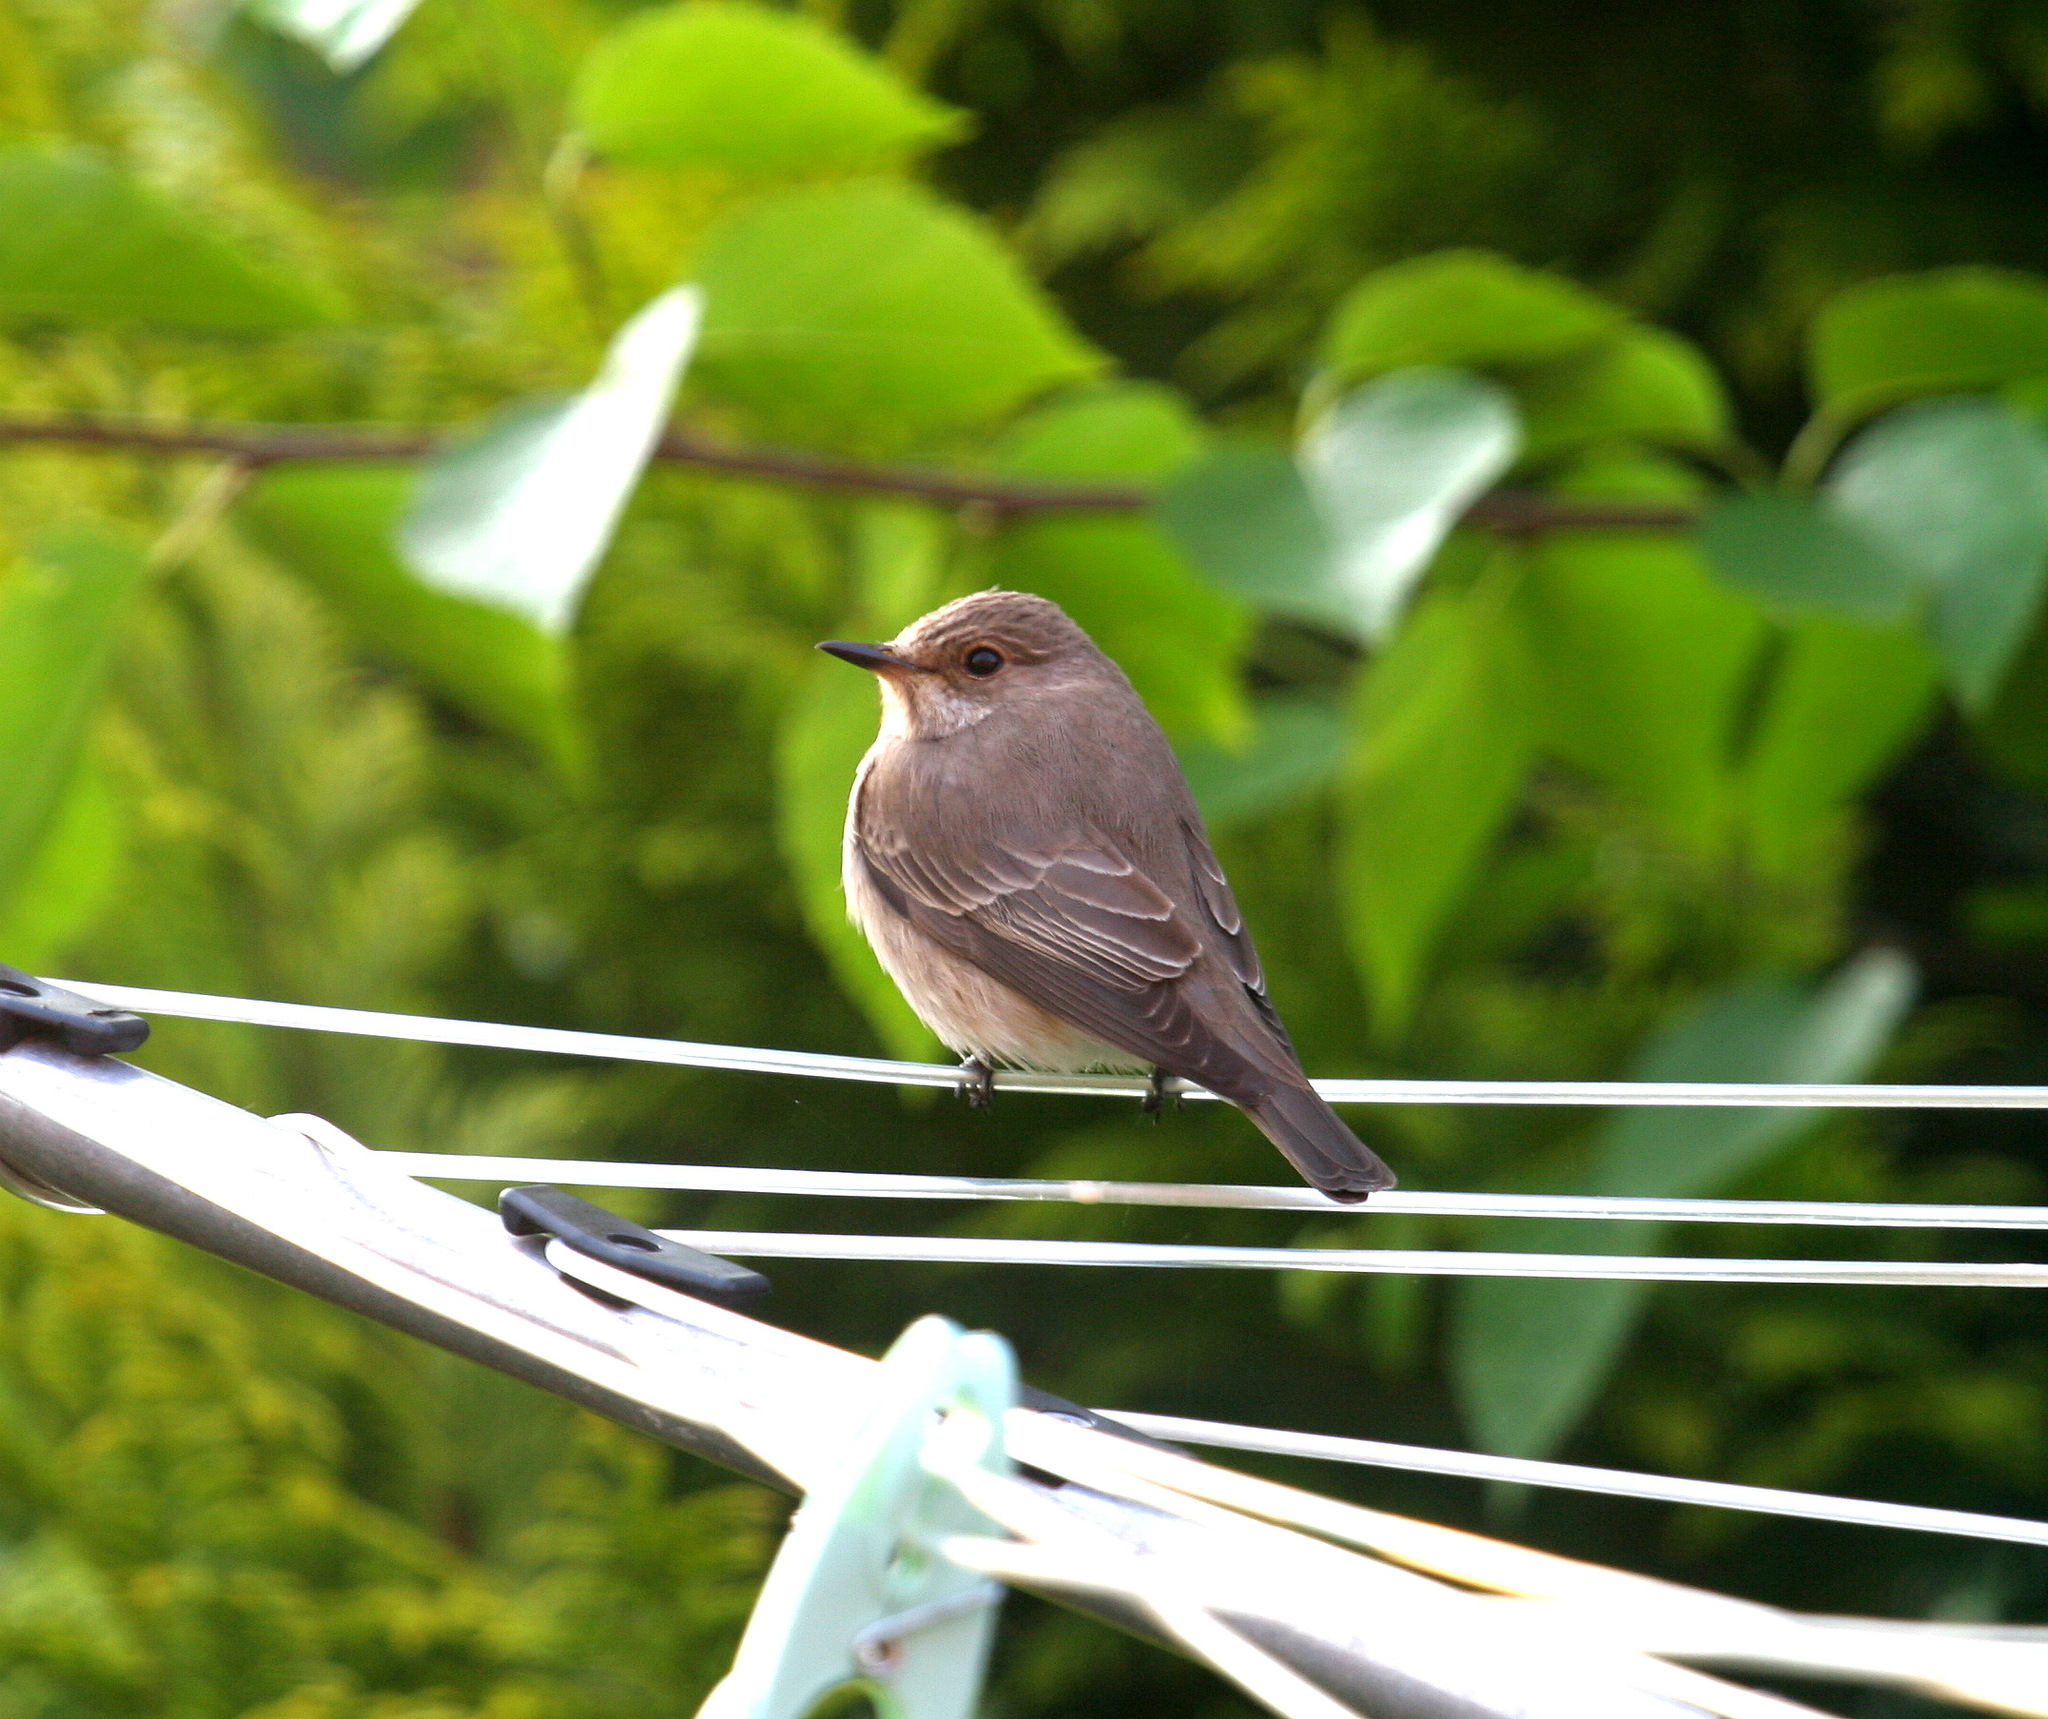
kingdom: Animalia
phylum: Chordata
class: Aves
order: Passeriformes
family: Muscicapidae
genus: Muscicapa
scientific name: Muscicapa striata
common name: Spotted flycatcher
